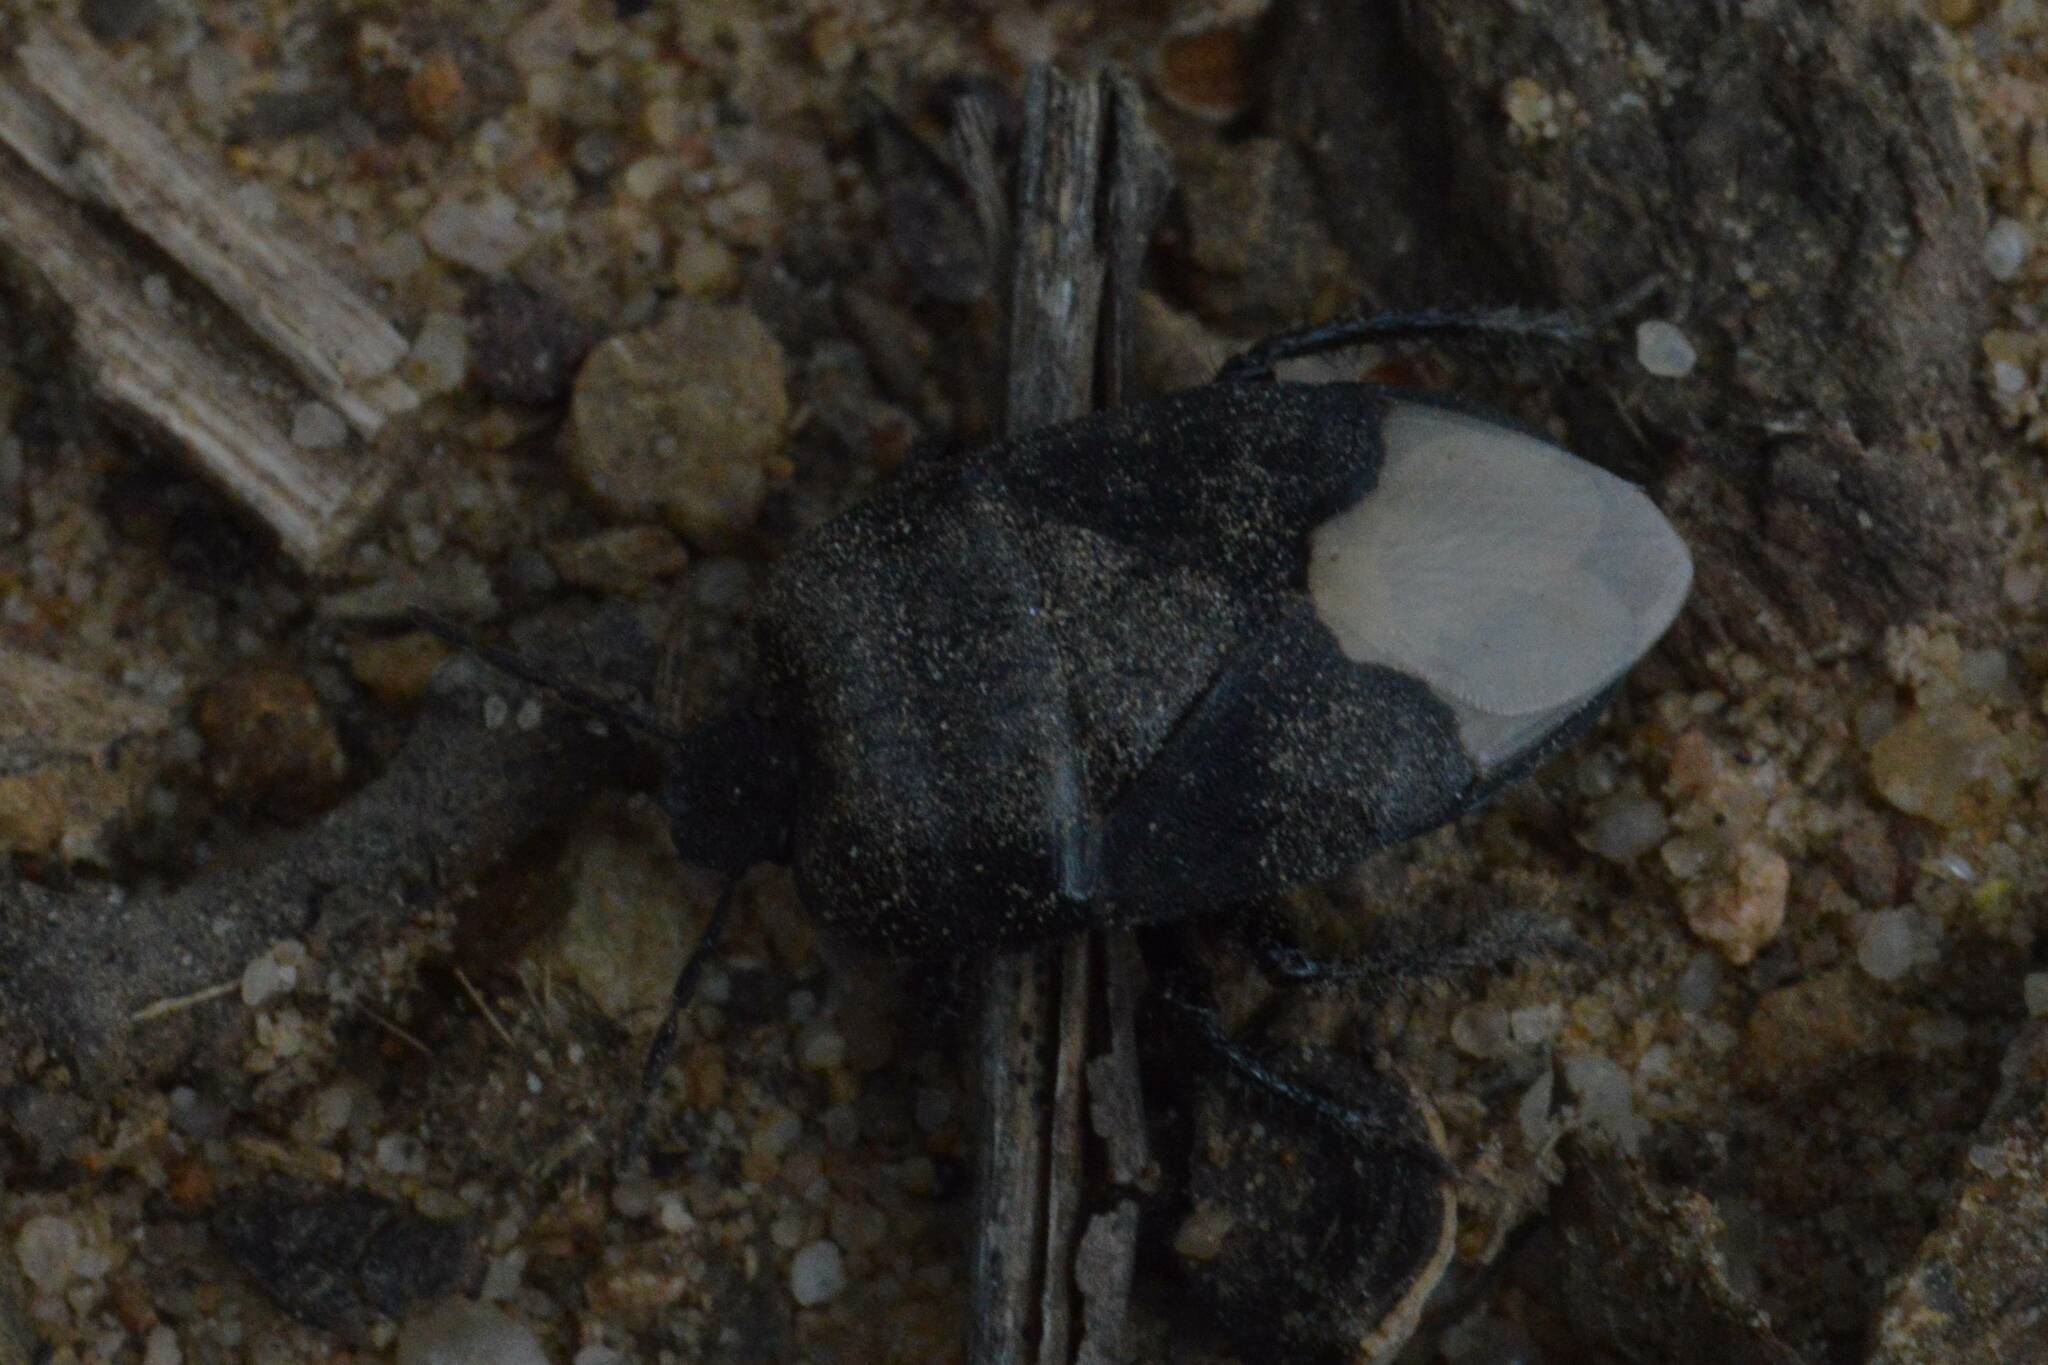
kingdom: Animalia
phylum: Arthropoda
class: Insecta
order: Hemiptera
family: Cydnidae
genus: Cydnus
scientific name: Cydnus aterrimus
